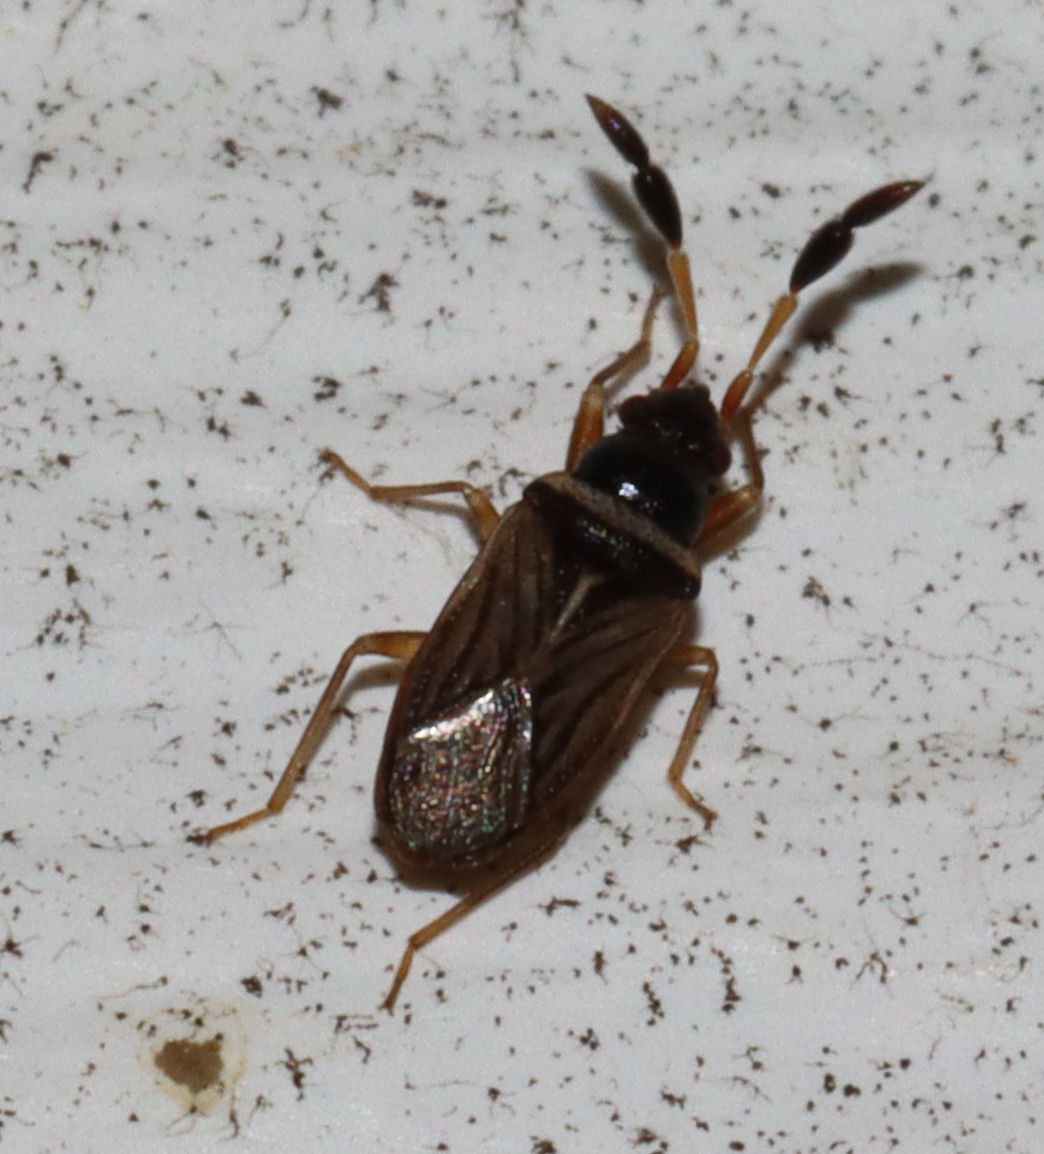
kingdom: Animalia
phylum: Arthropoda
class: Insecta
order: Hemiptera
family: Rhyparochromidae
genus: Ptochiomera
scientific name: Ptochiomera nodosa
